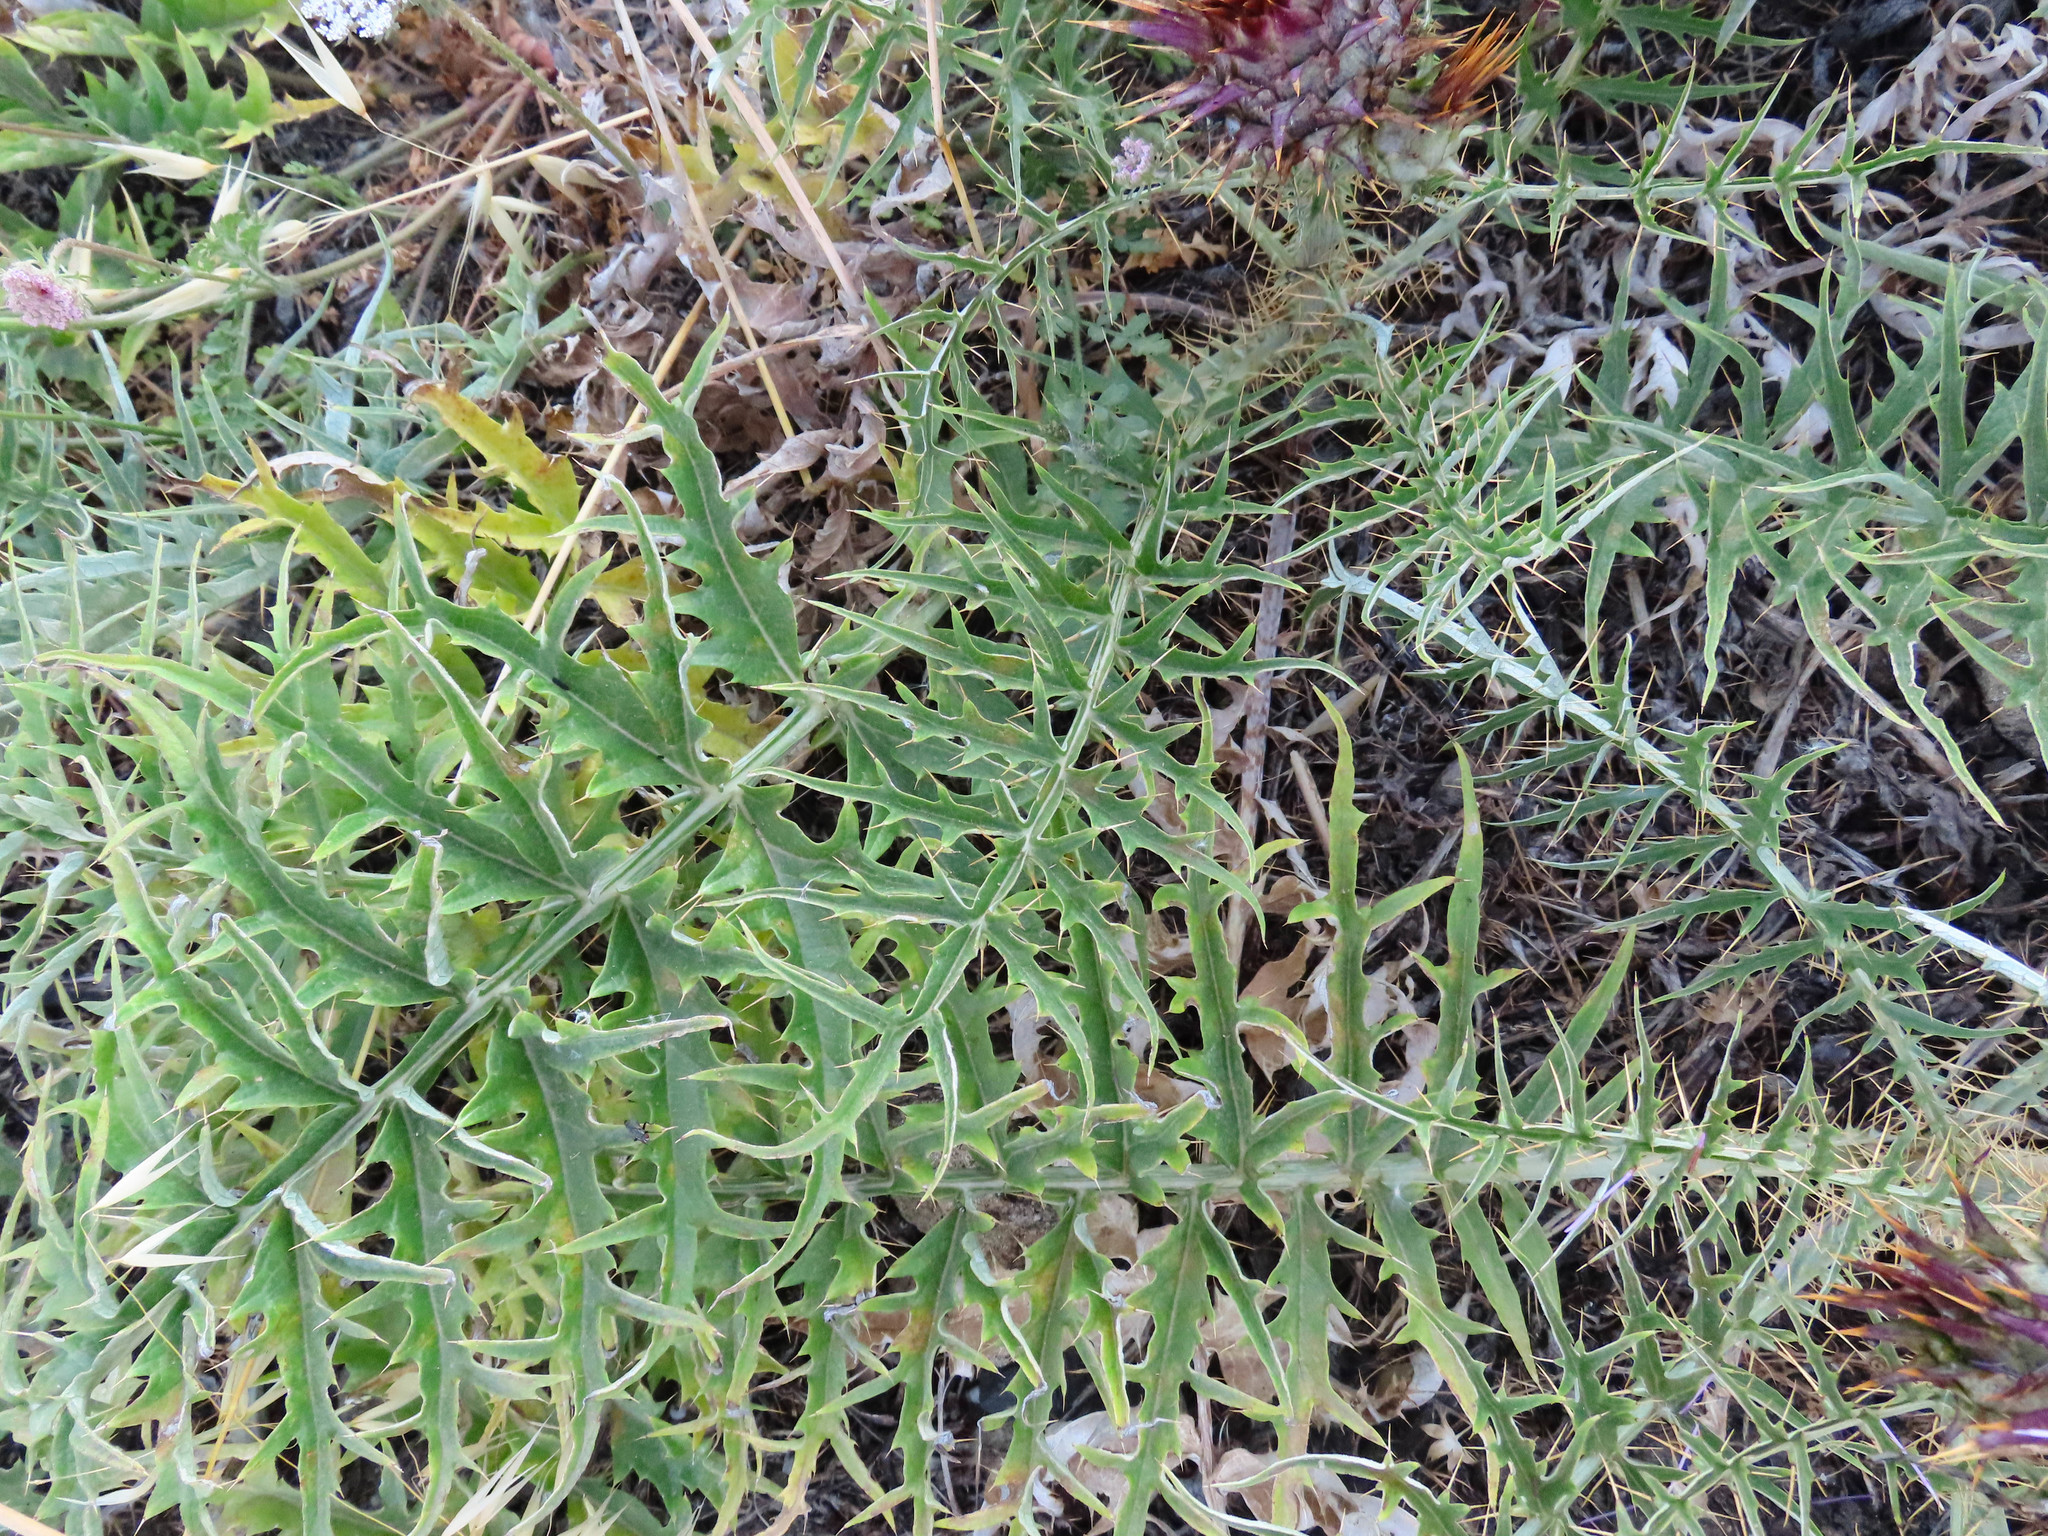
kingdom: Plantae
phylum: Tracheophyta
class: Magnoliopsida
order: Asterales
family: Asteraceae
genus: Cynara
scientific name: Cynara cardunculus
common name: Globe artichoke
